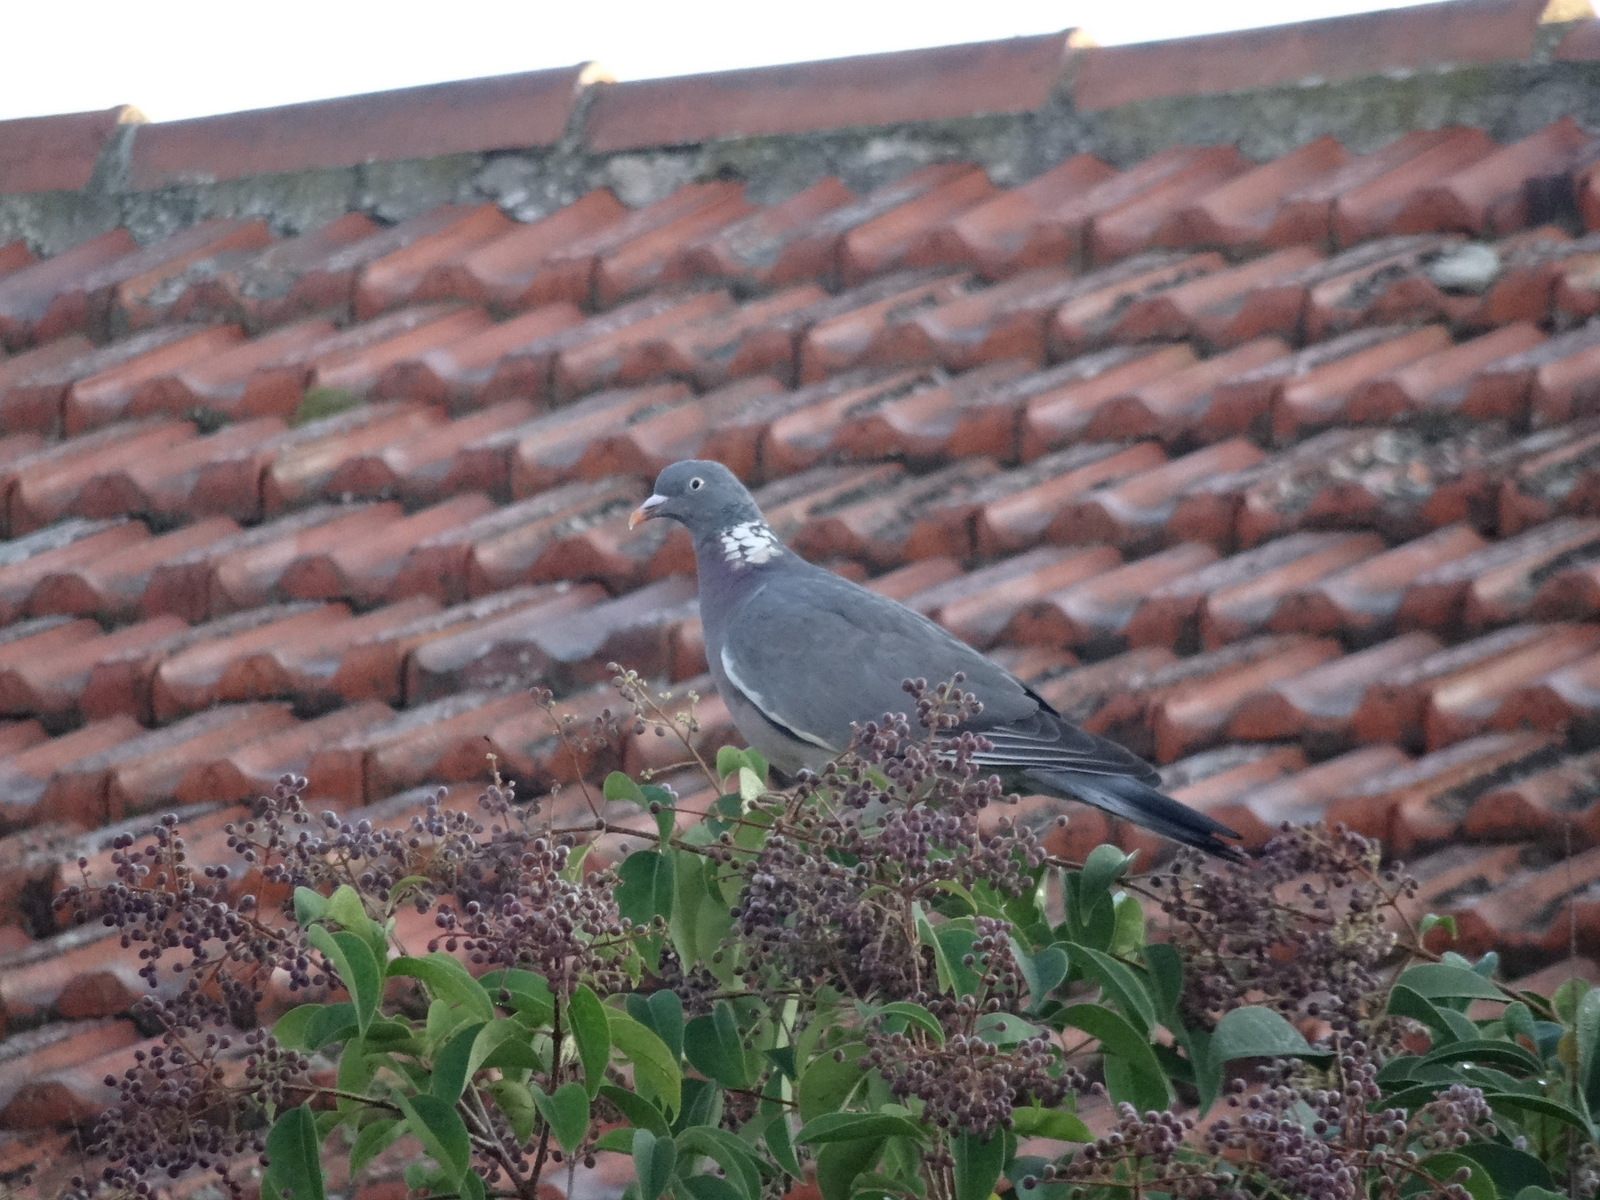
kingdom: Animalia
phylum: Chordata
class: Aves
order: Columbiformes
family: Columbidae
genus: Columba
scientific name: Columba palumbus
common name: Common wood pigeon
